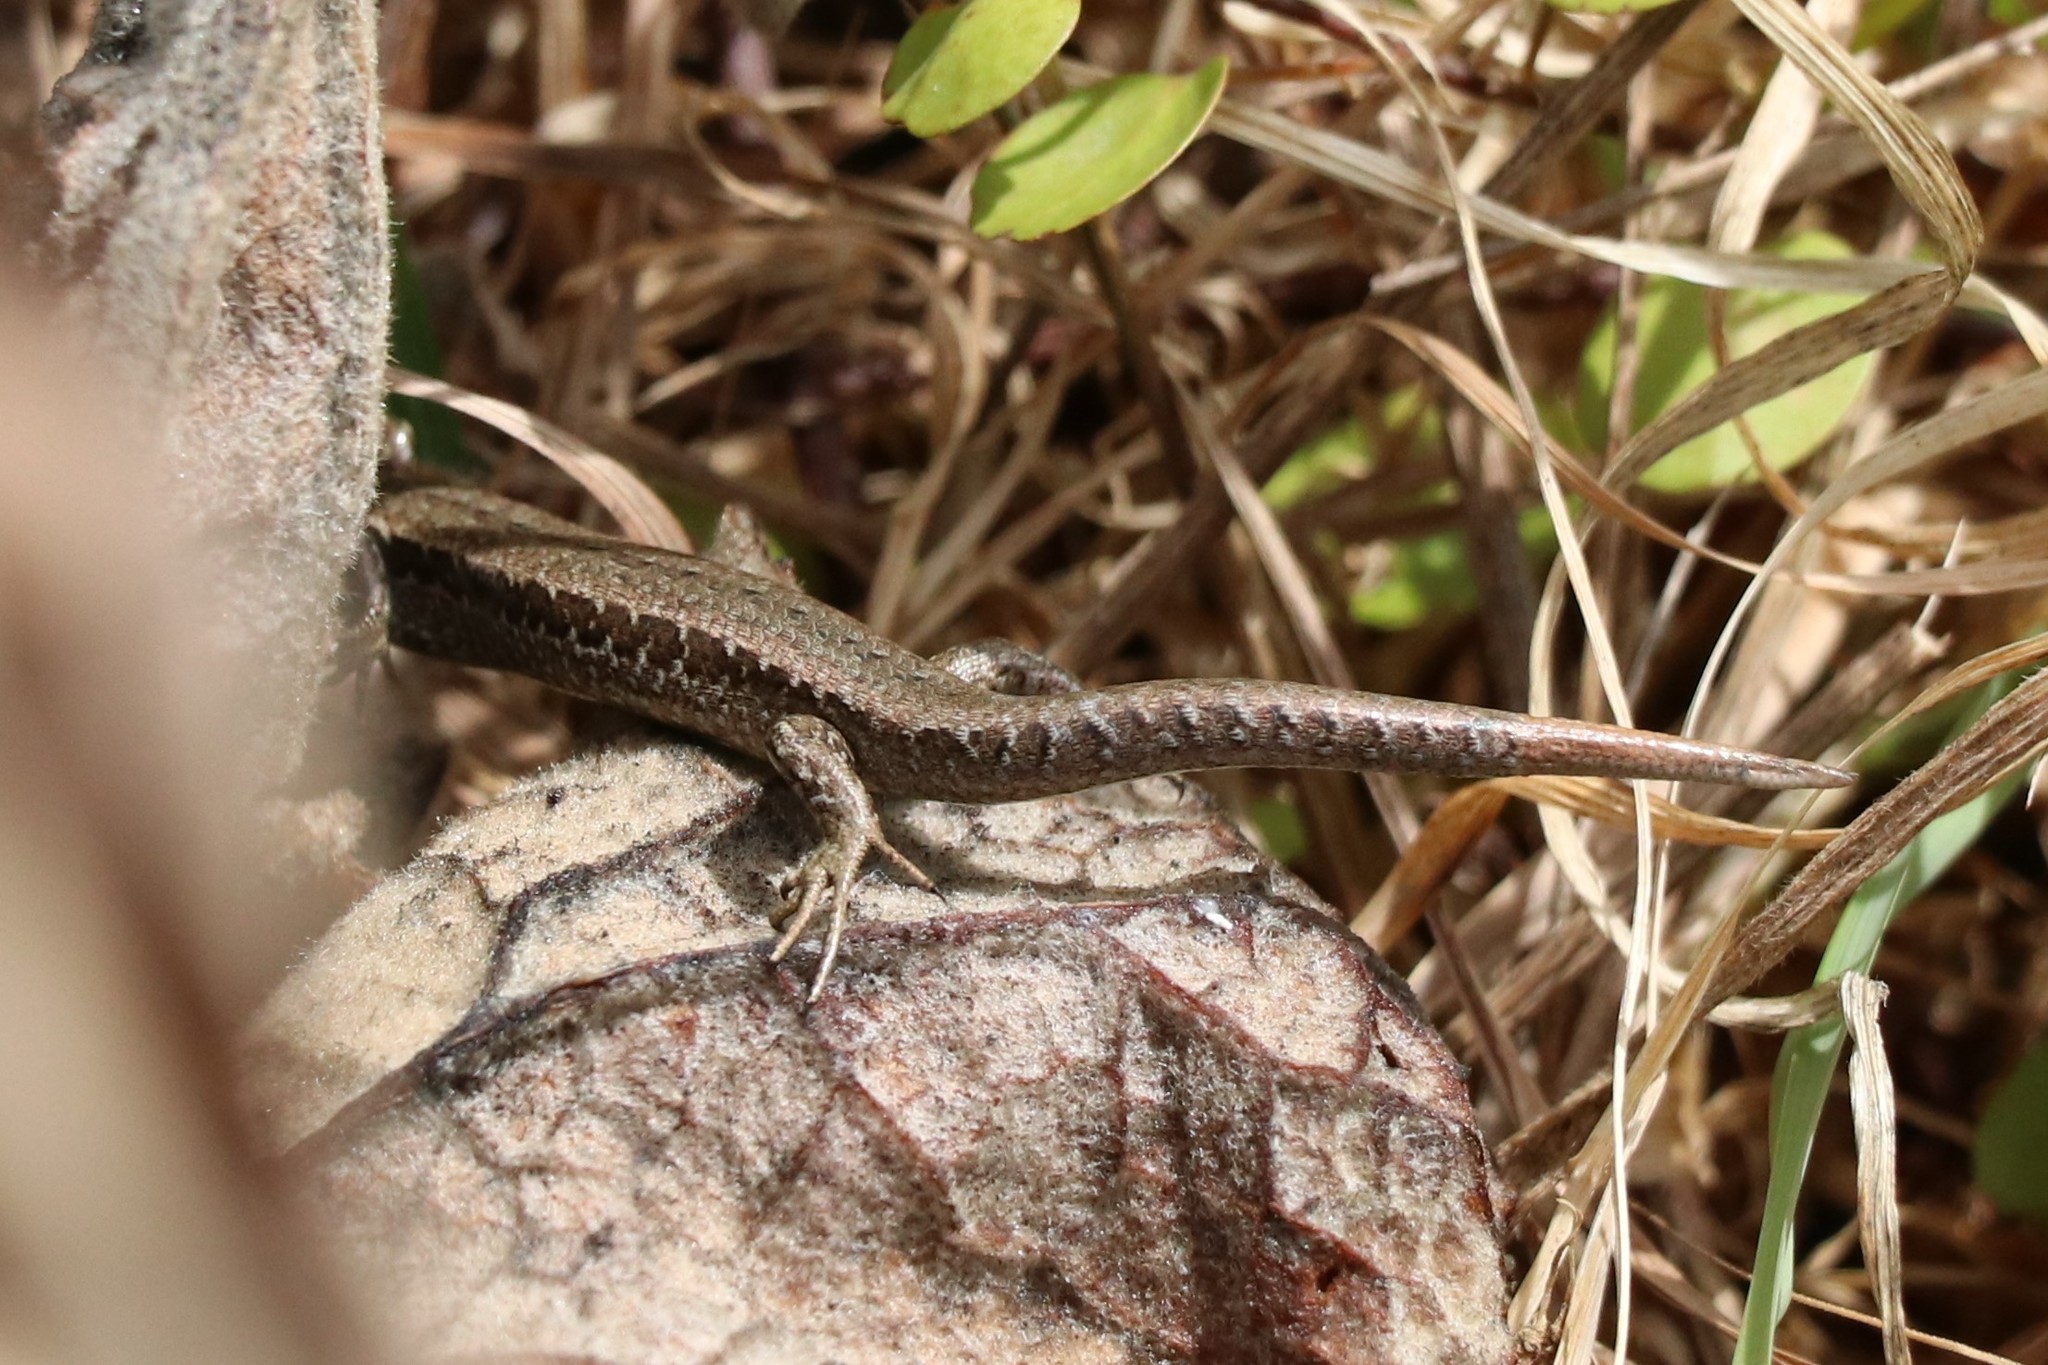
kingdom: Animalia
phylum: Chordata
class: Squamata
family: Scincidae
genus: Oligosoma
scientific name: Oligosoma polychroma
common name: Common new zealand skink
